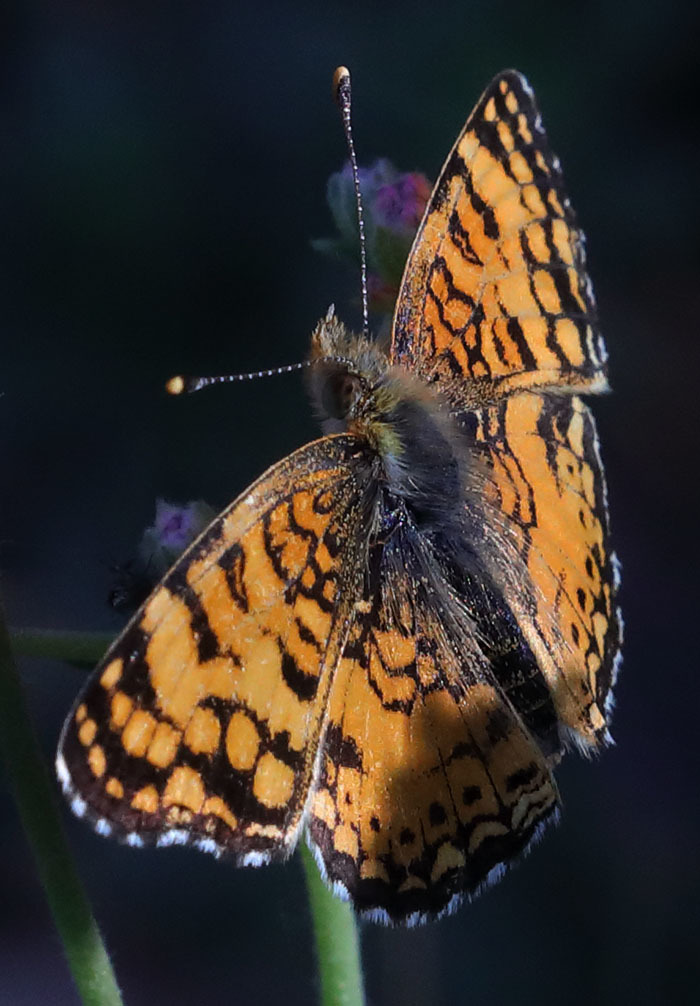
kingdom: Animalia
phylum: Arthropoda
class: Insecta
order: Lepidoptera
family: Nymphalidae
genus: Eresia
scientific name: Eresia aveyrona
